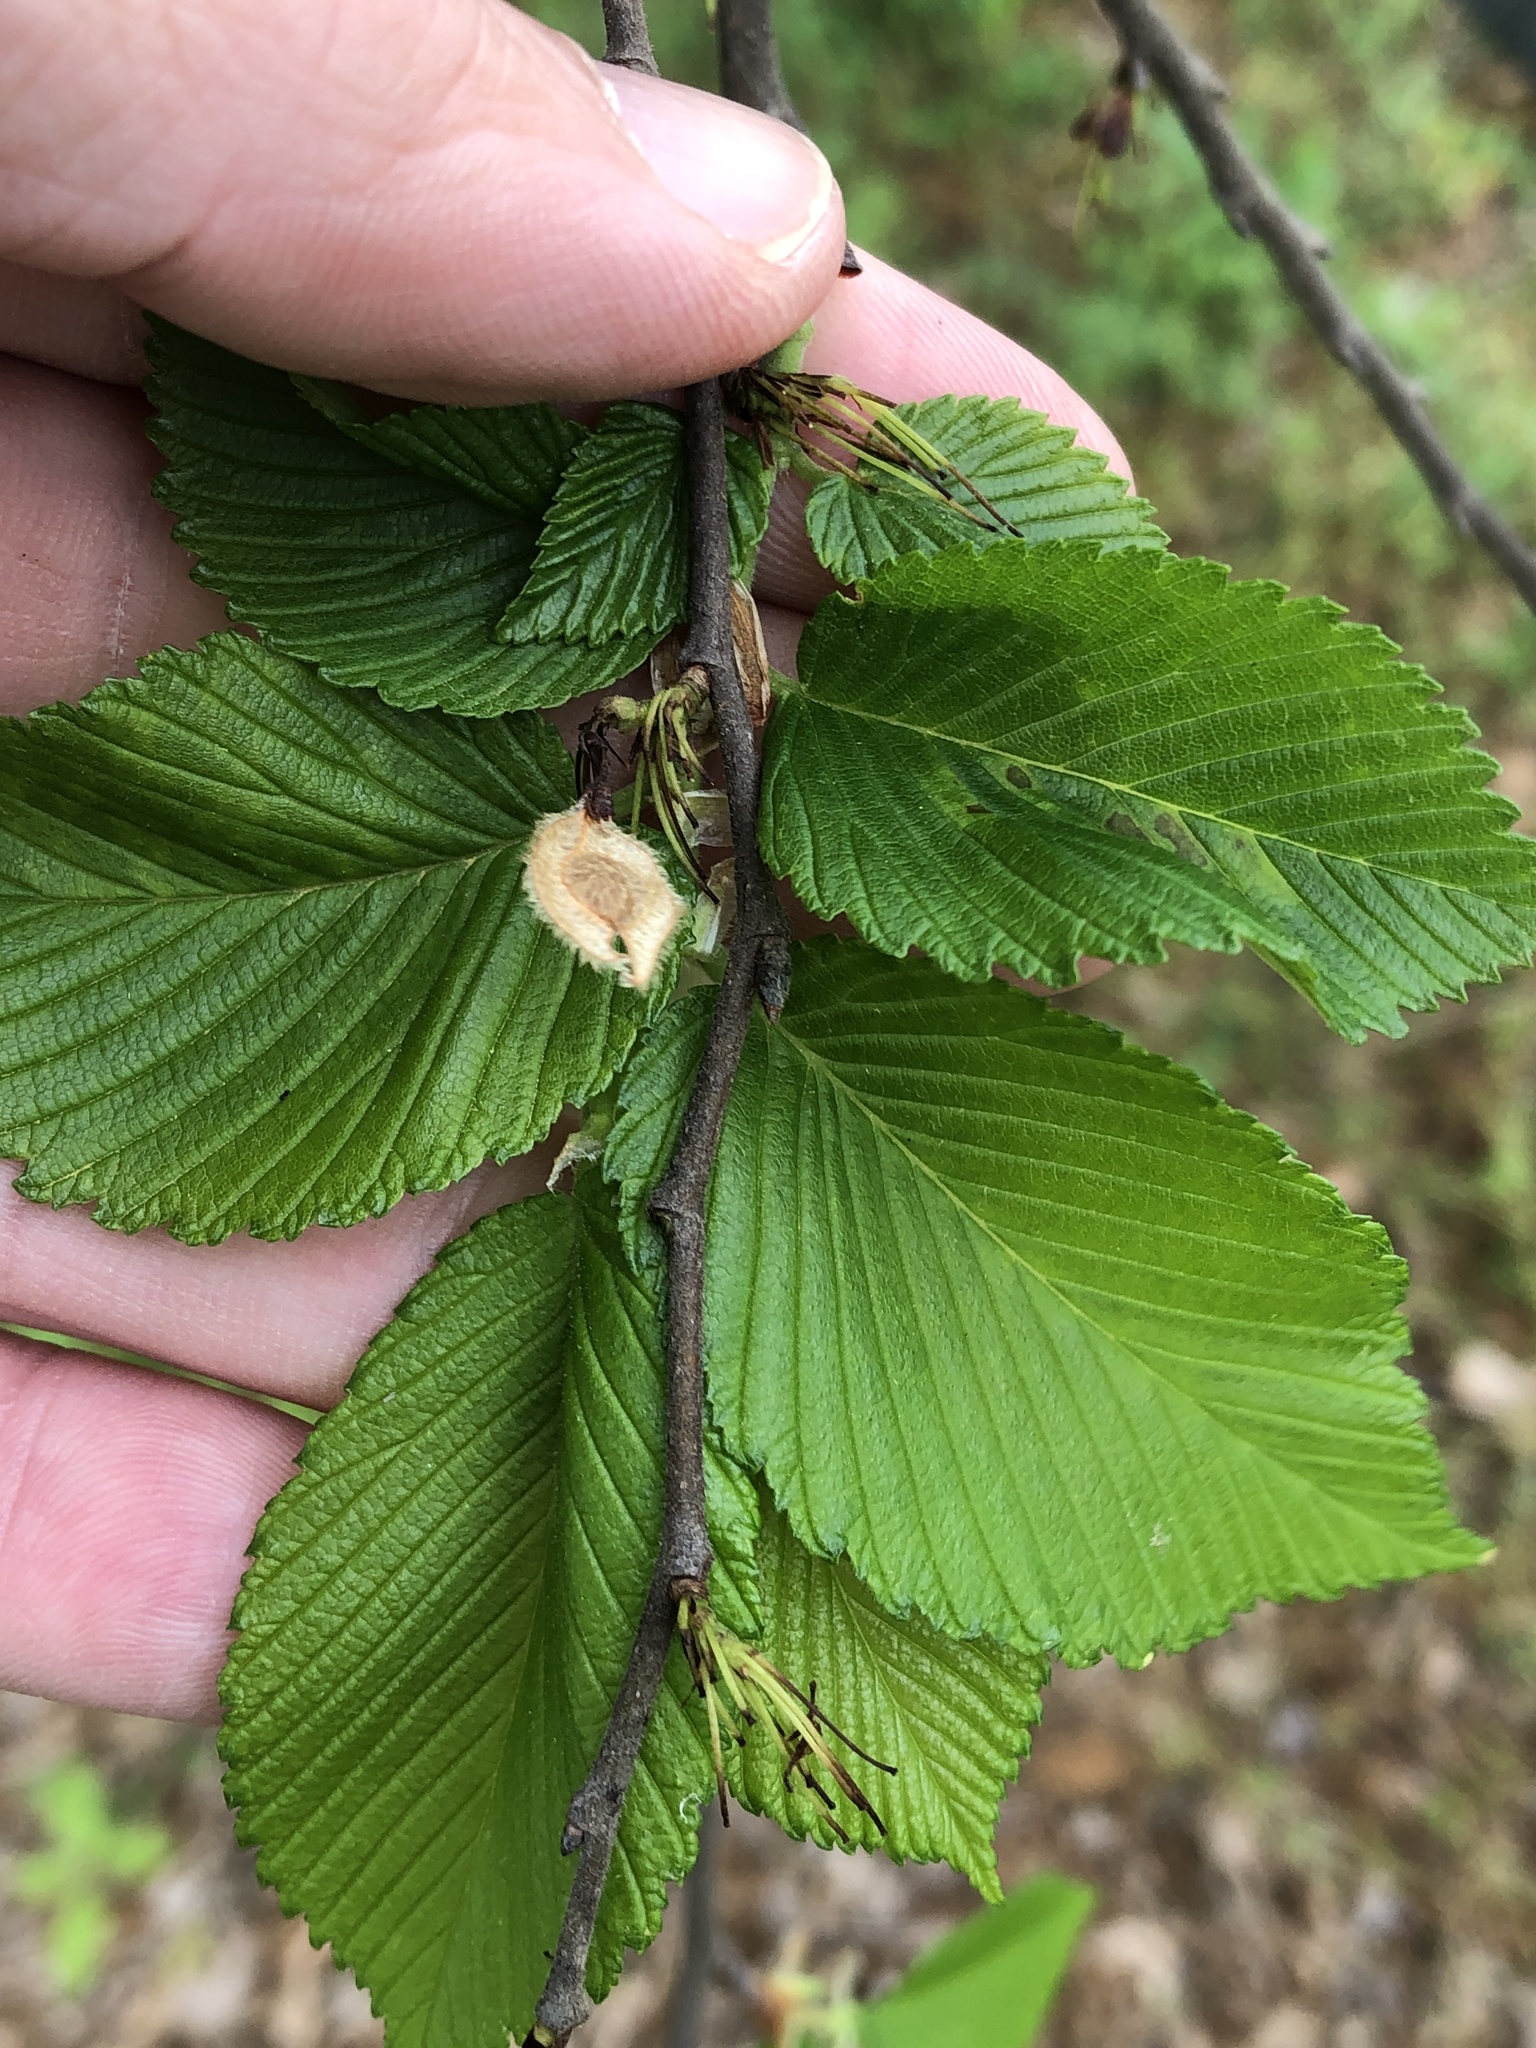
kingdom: Plantae
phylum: Tracheophyta
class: Magnoliopsida
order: Rosales
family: Ulmaceae
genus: Ulmus
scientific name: Ulmus americana
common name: American elm
